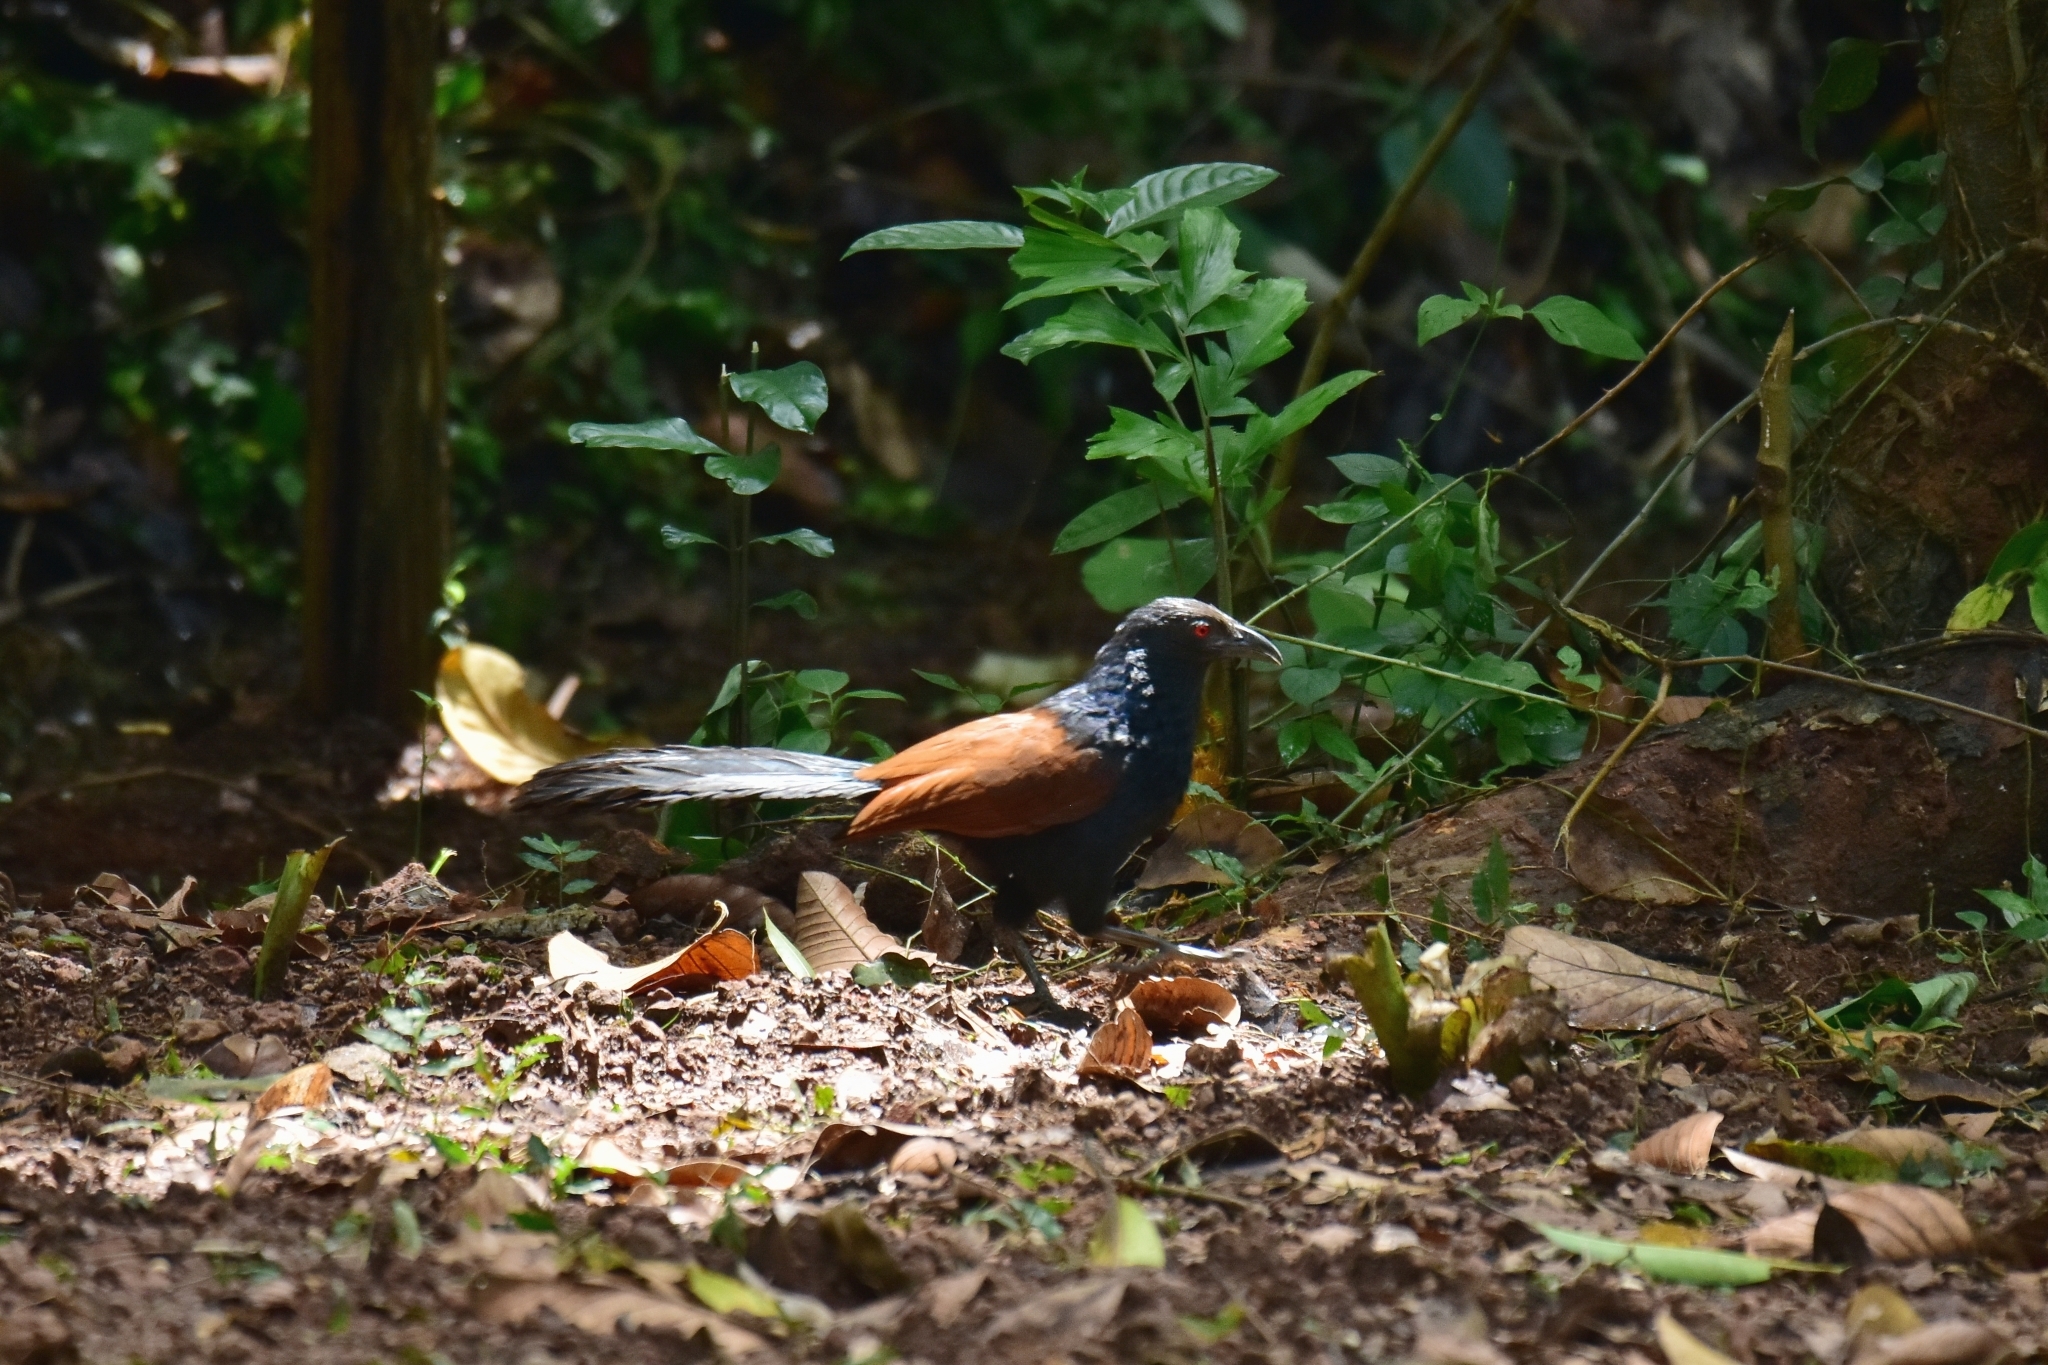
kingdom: Animalia
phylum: Chordata
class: Aves
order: Cuculiformes
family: Cuculidae
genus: Centropus
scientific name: Centropus sinensis
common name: Greater coucal
